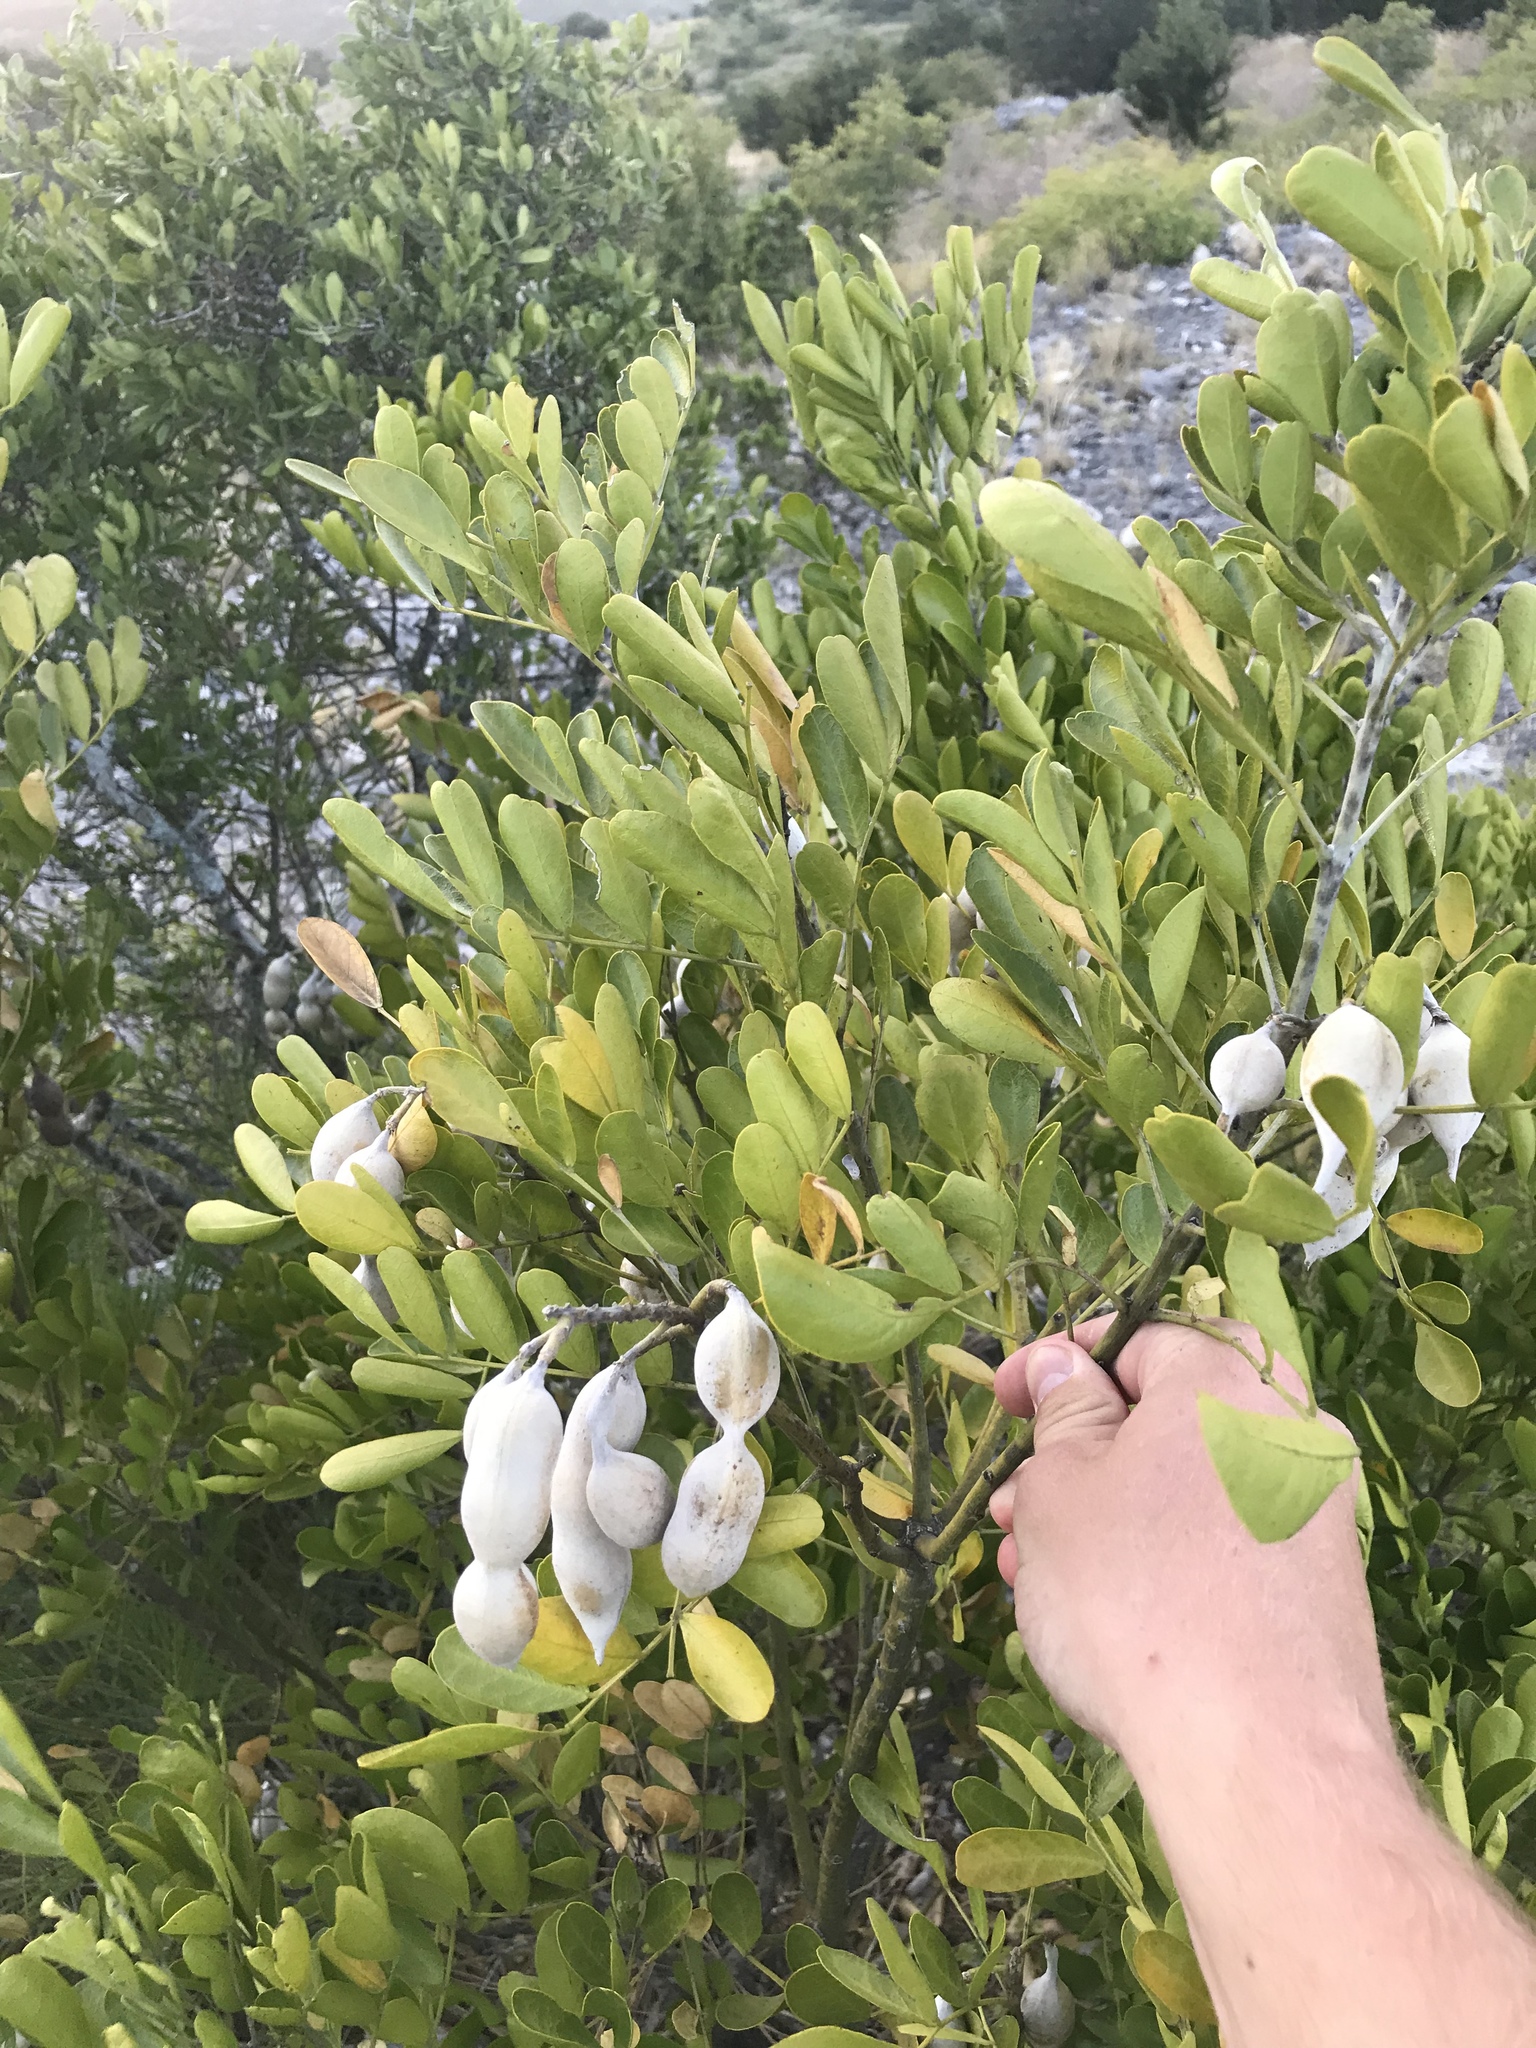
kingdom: Plantae
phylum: Tracheophyta
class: Magnoliopsida
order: Fabales
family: Fabaceae
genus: Dermatophyllum
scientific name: Dermatophyllum secundiflorum
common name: Texas-mountain-laurel
